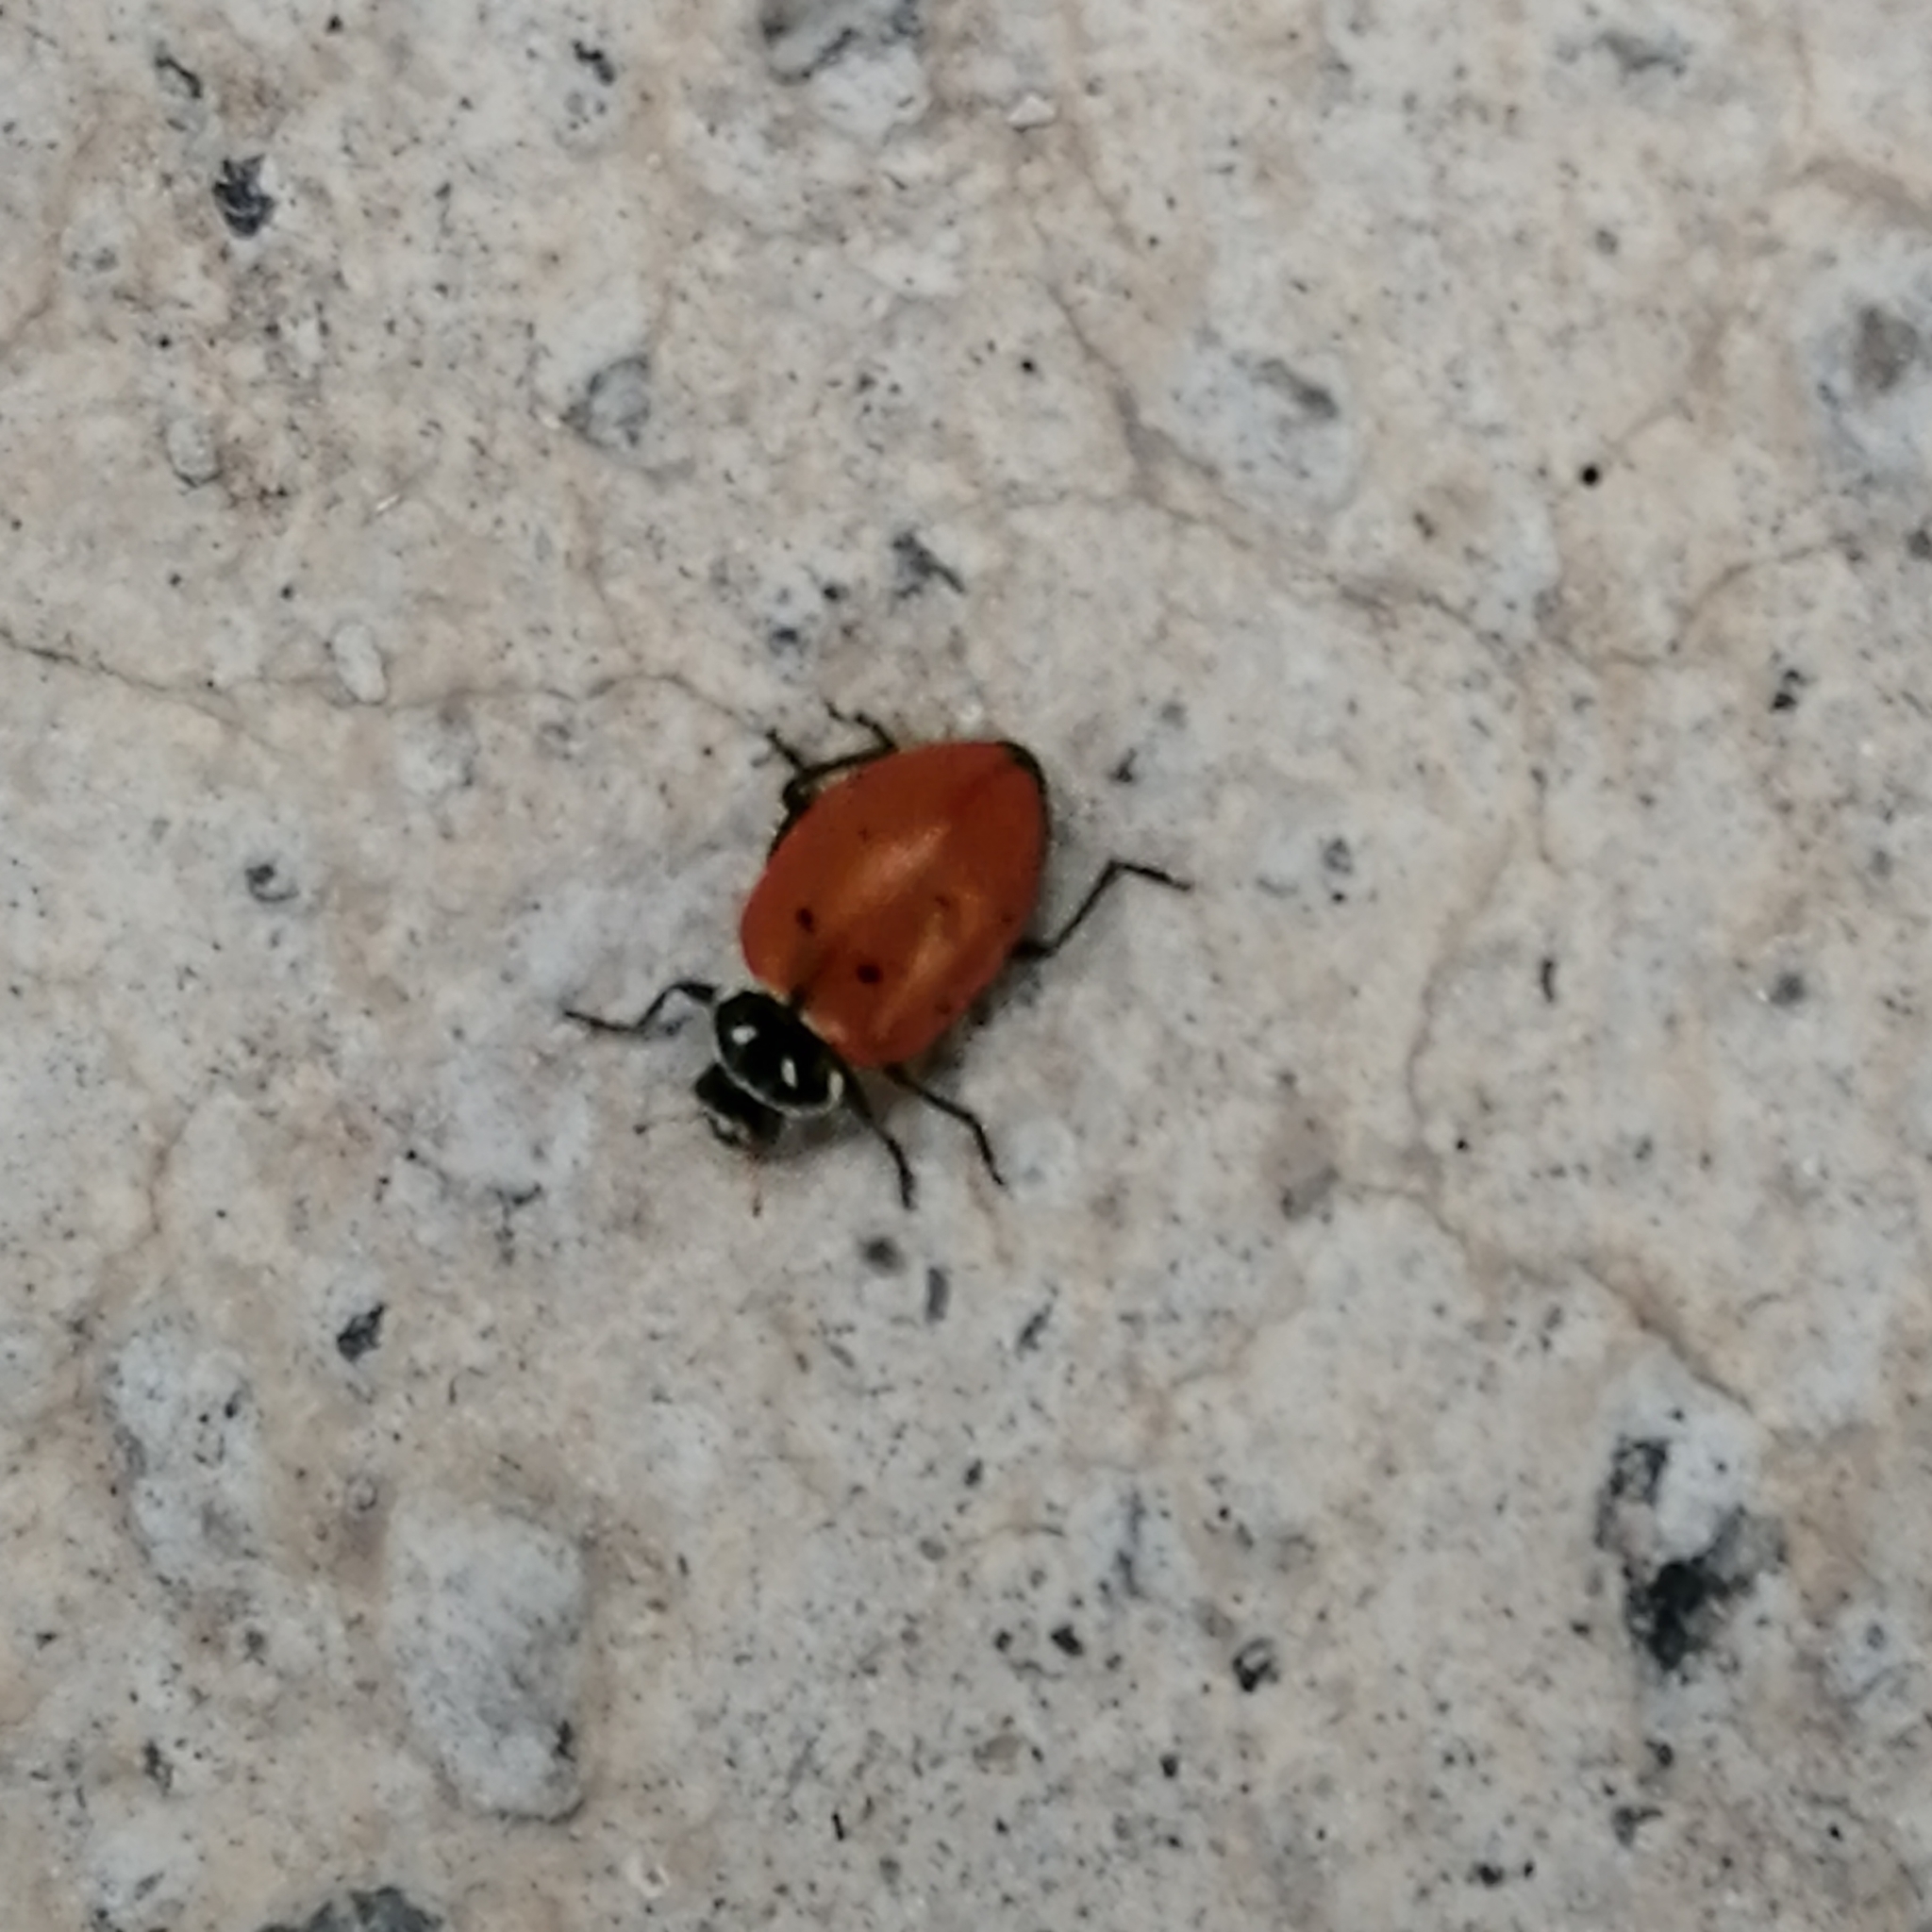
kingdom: Animalia
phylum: Arthropoda
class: Insecta
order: Coleoptera
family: Coccinellidae
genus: Hippodamia
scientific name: Hippodamia convergens
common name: Convergent lady beetle
